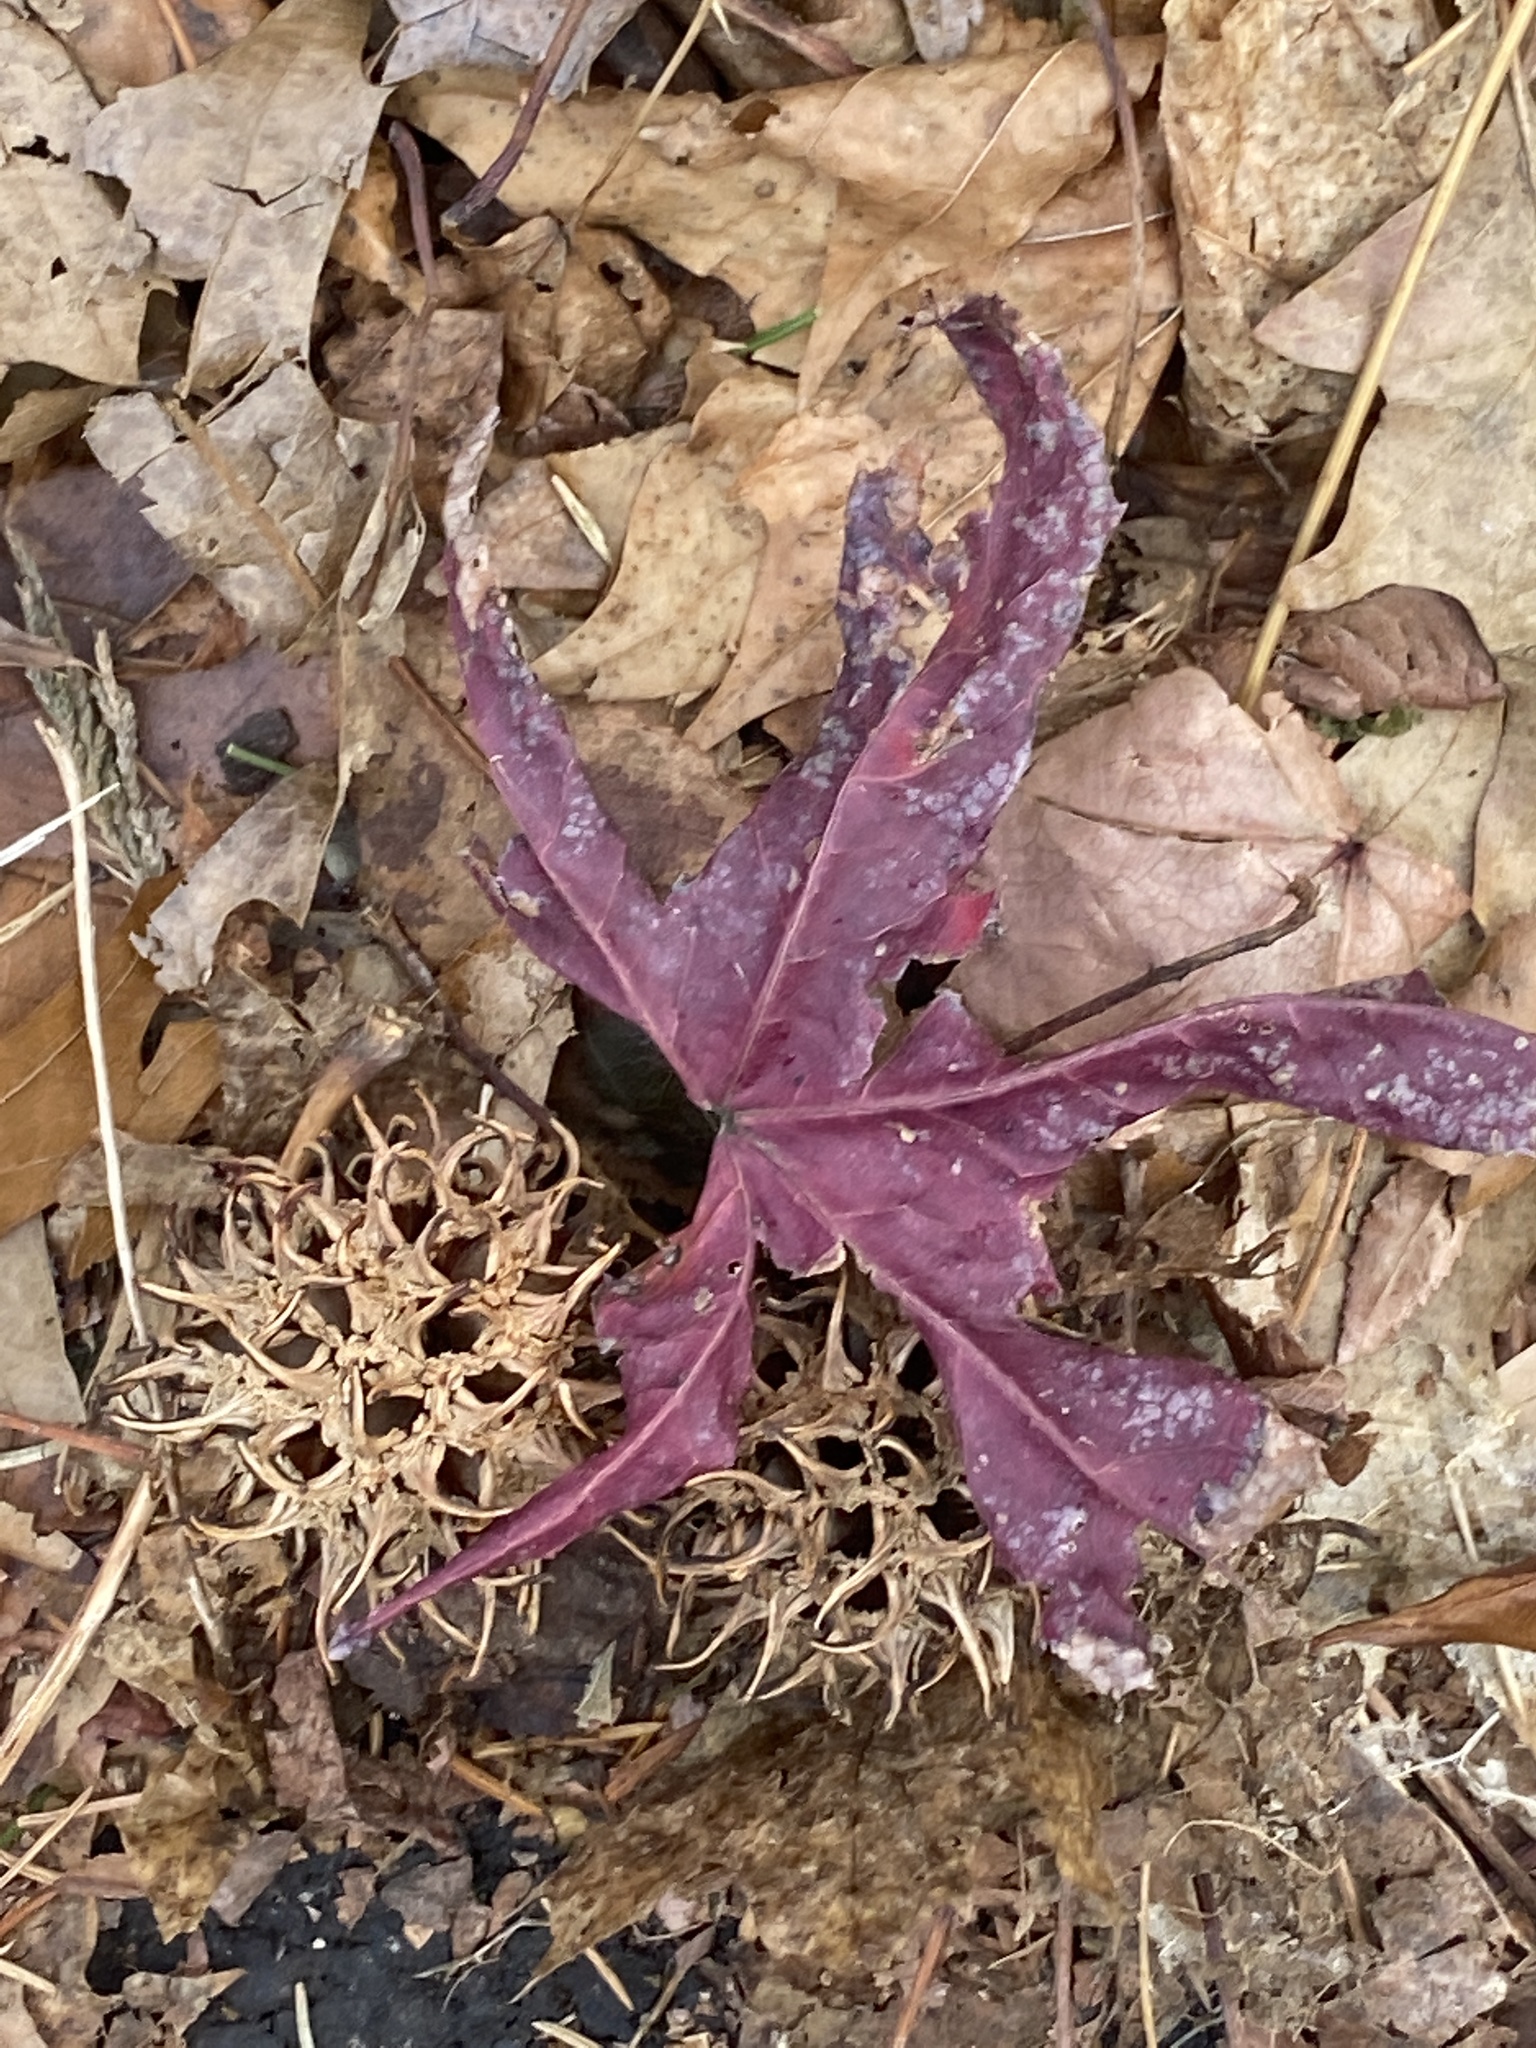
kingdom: Plantae
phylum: Tracheophyta
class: Magnoliopsida
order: Saxifragales
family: Altingiaceae
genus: Liquidambar
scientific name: Liquidambar styraciflua
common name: Sweet gum
